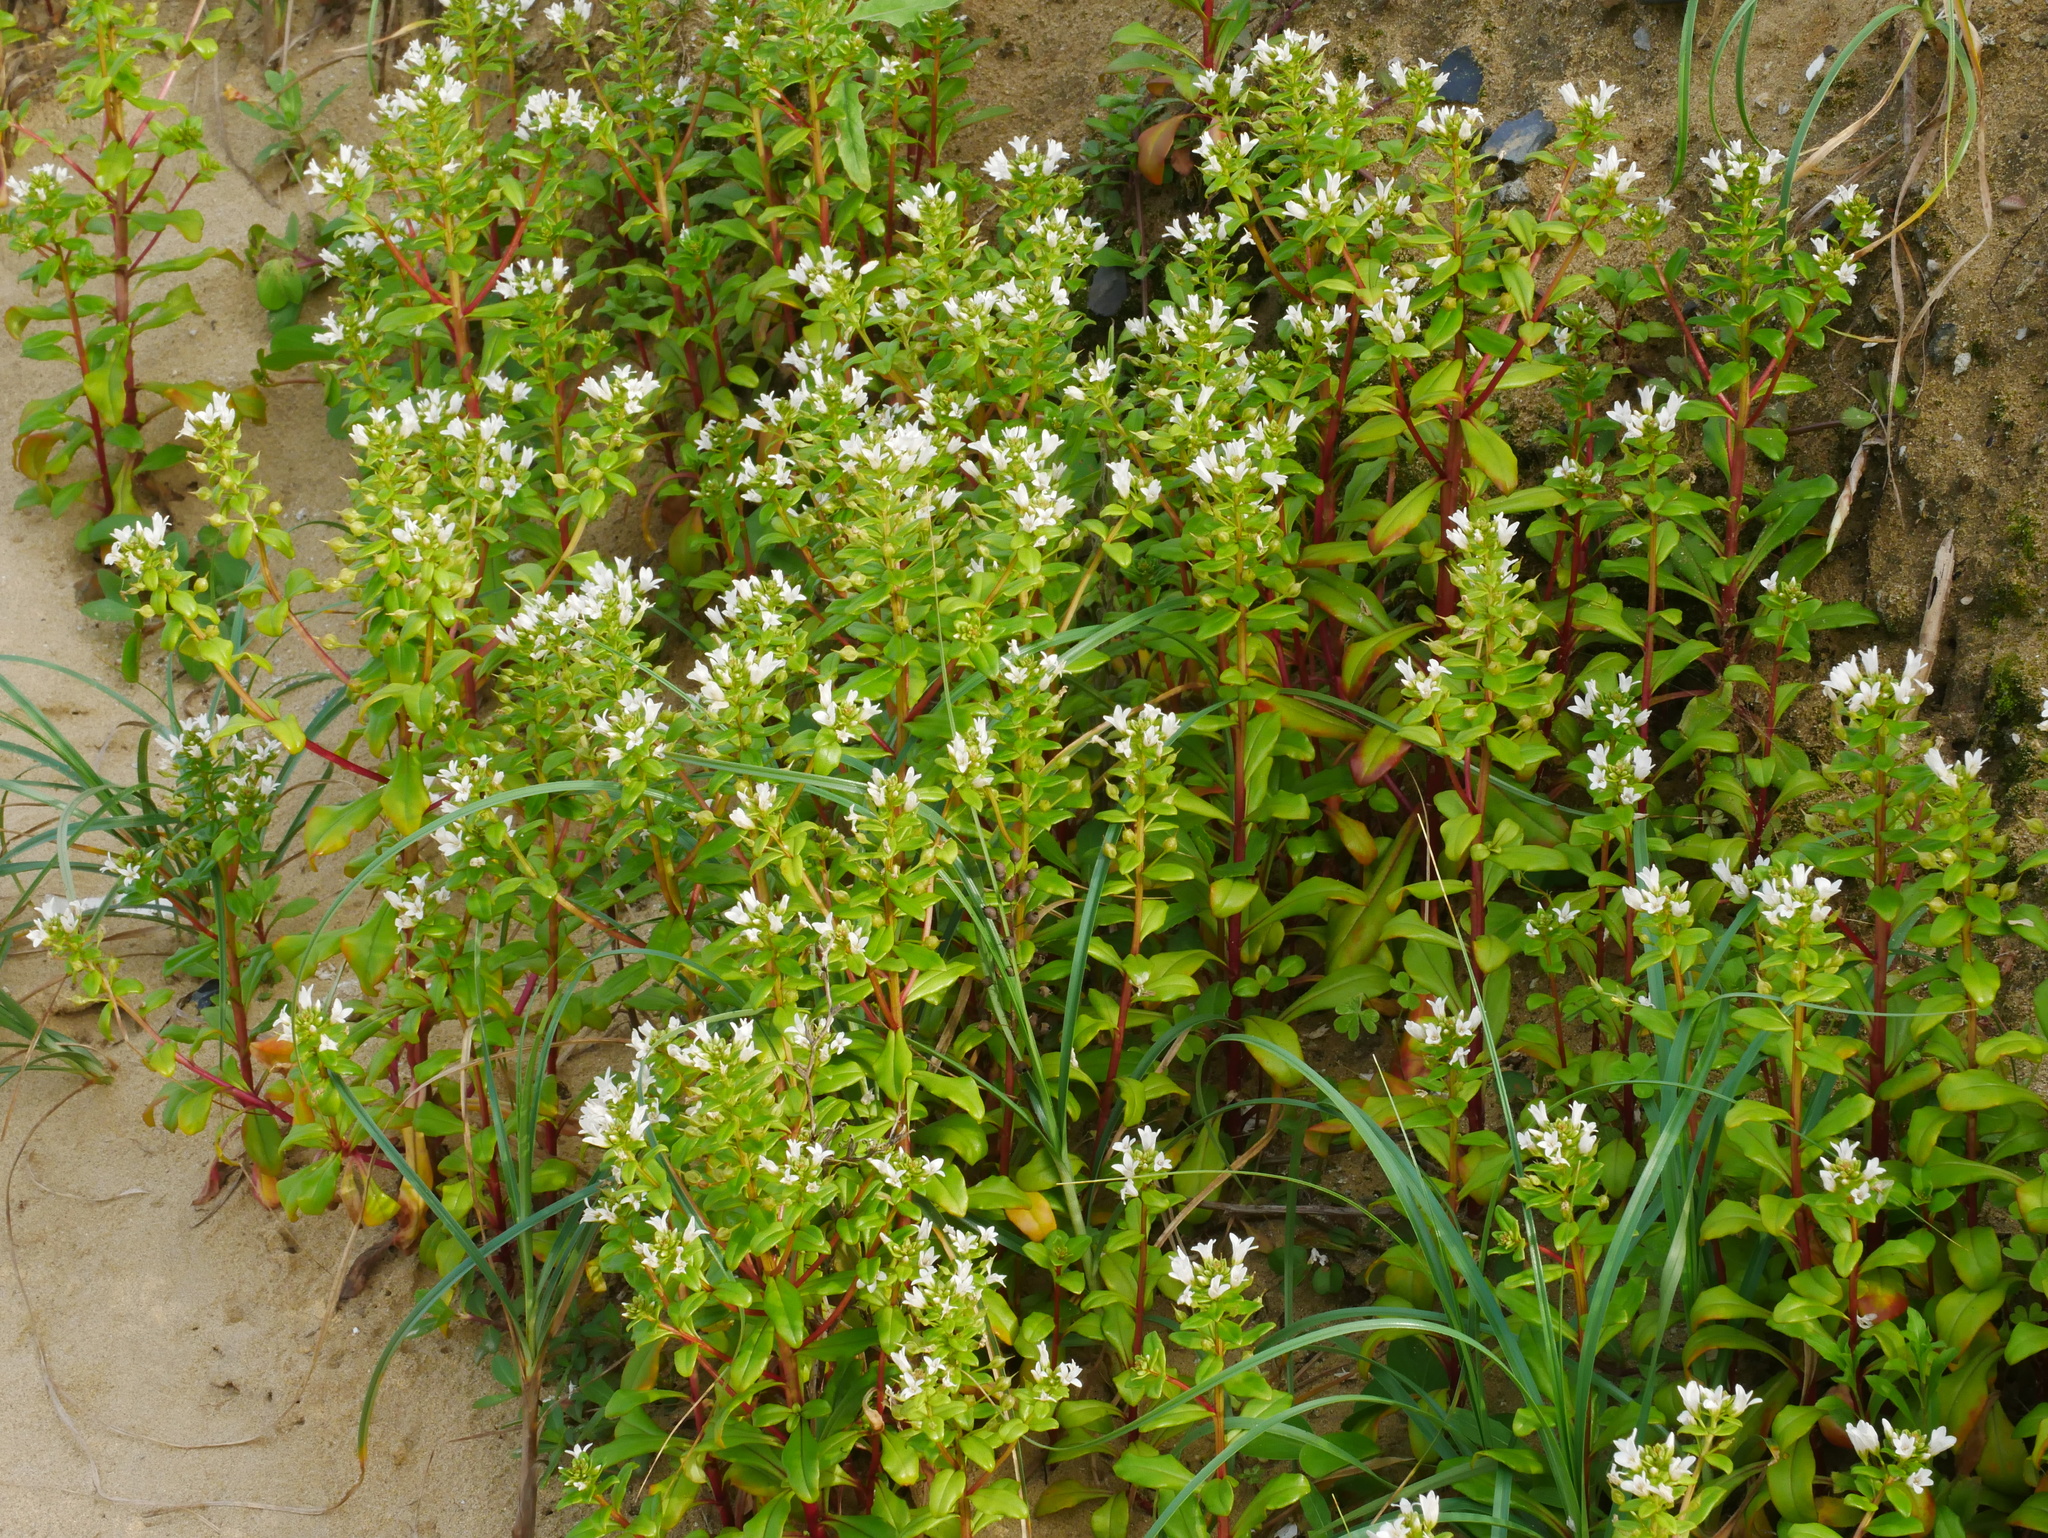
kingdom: Plantae
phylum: Tracheophyta
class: Magnoliopsida
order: Ericales
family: Primulaceae
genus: Lysimachia
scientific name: Lysimachia mauritiana
